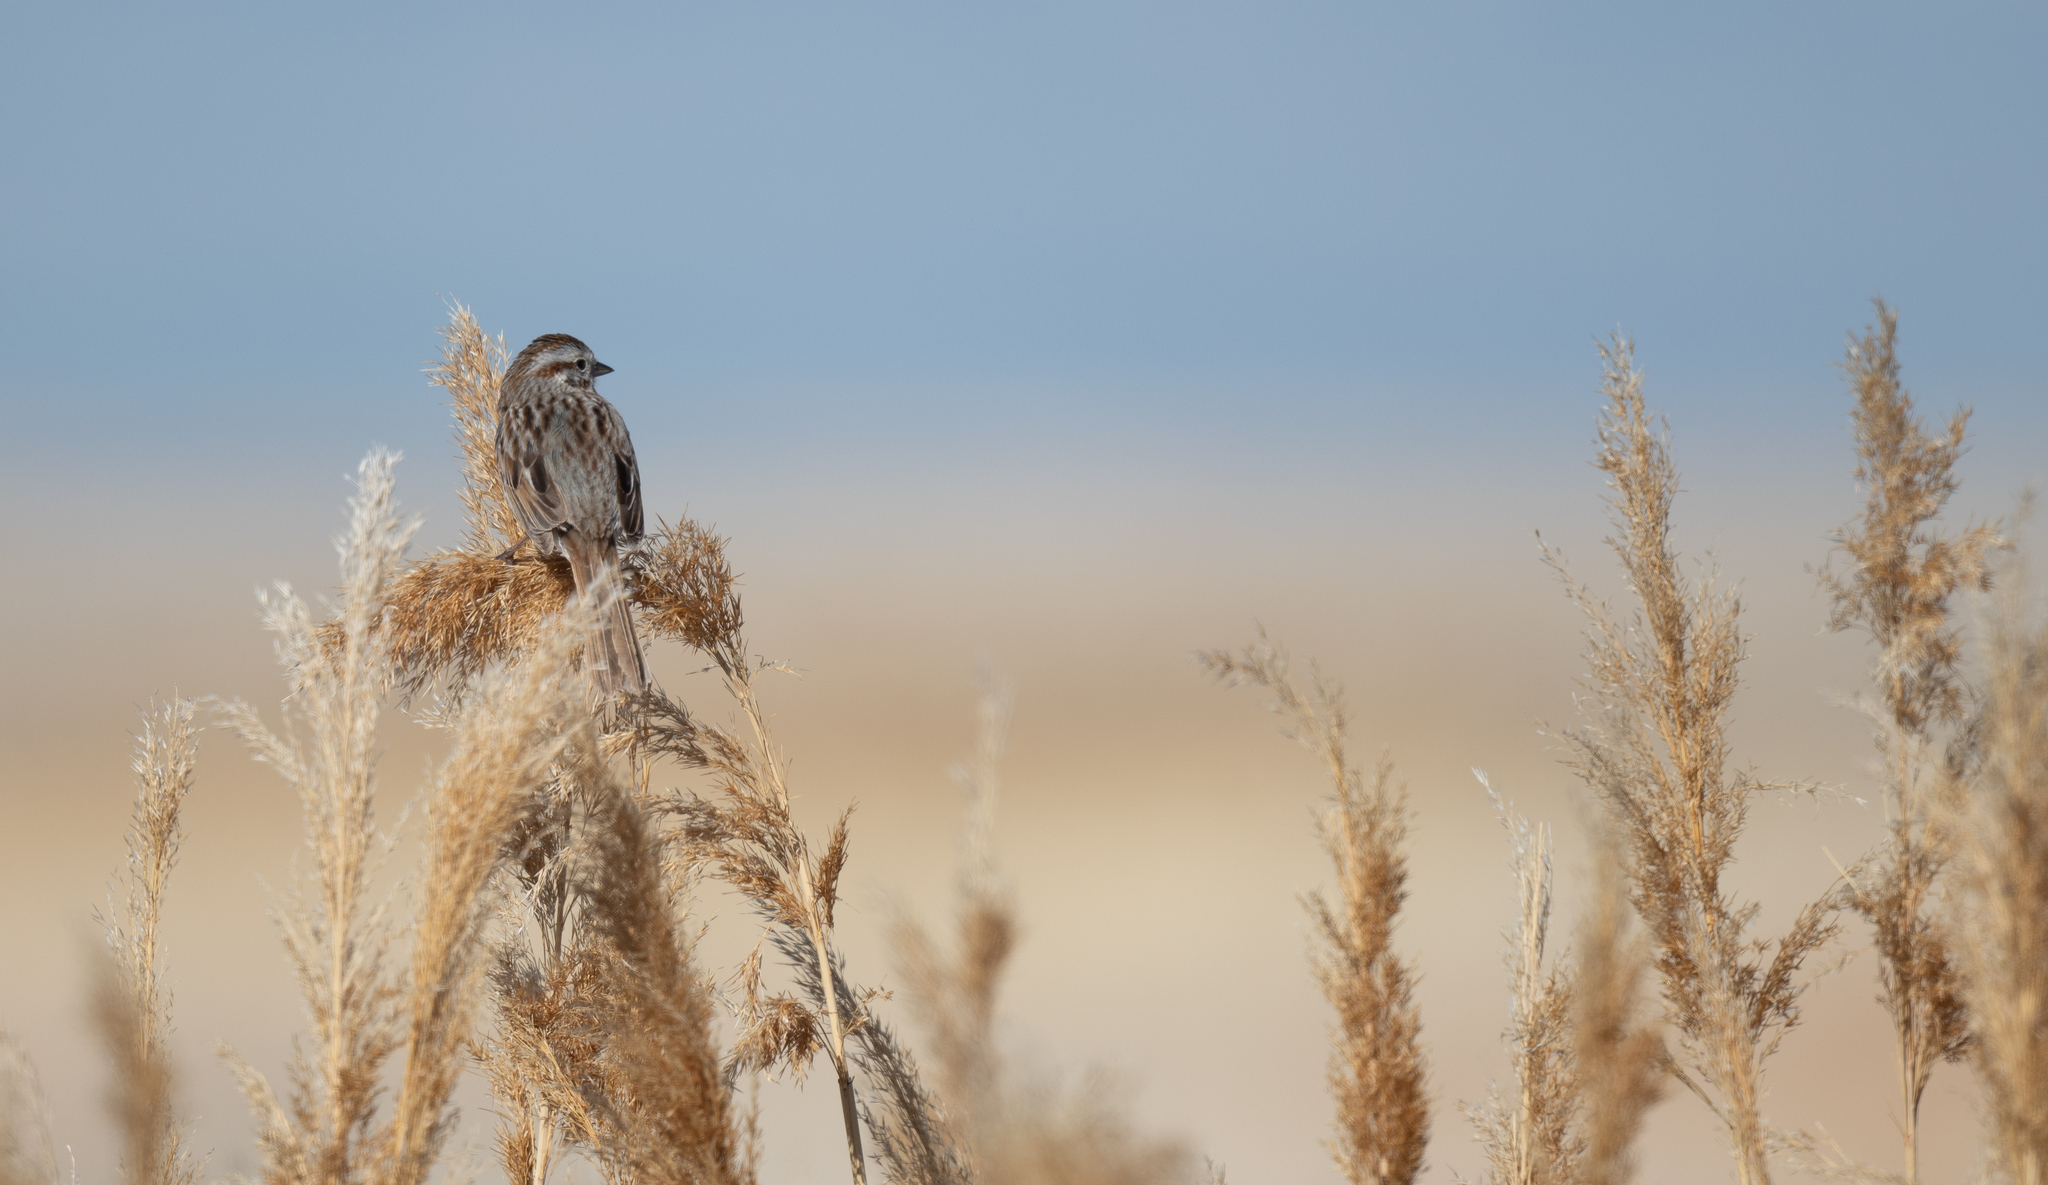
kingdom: Animalia
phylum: Chordata
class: Aves
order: Passeriformes
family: Passerellidae
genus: Melospiza
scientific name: Melospiza melodia
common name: Song sparrow
